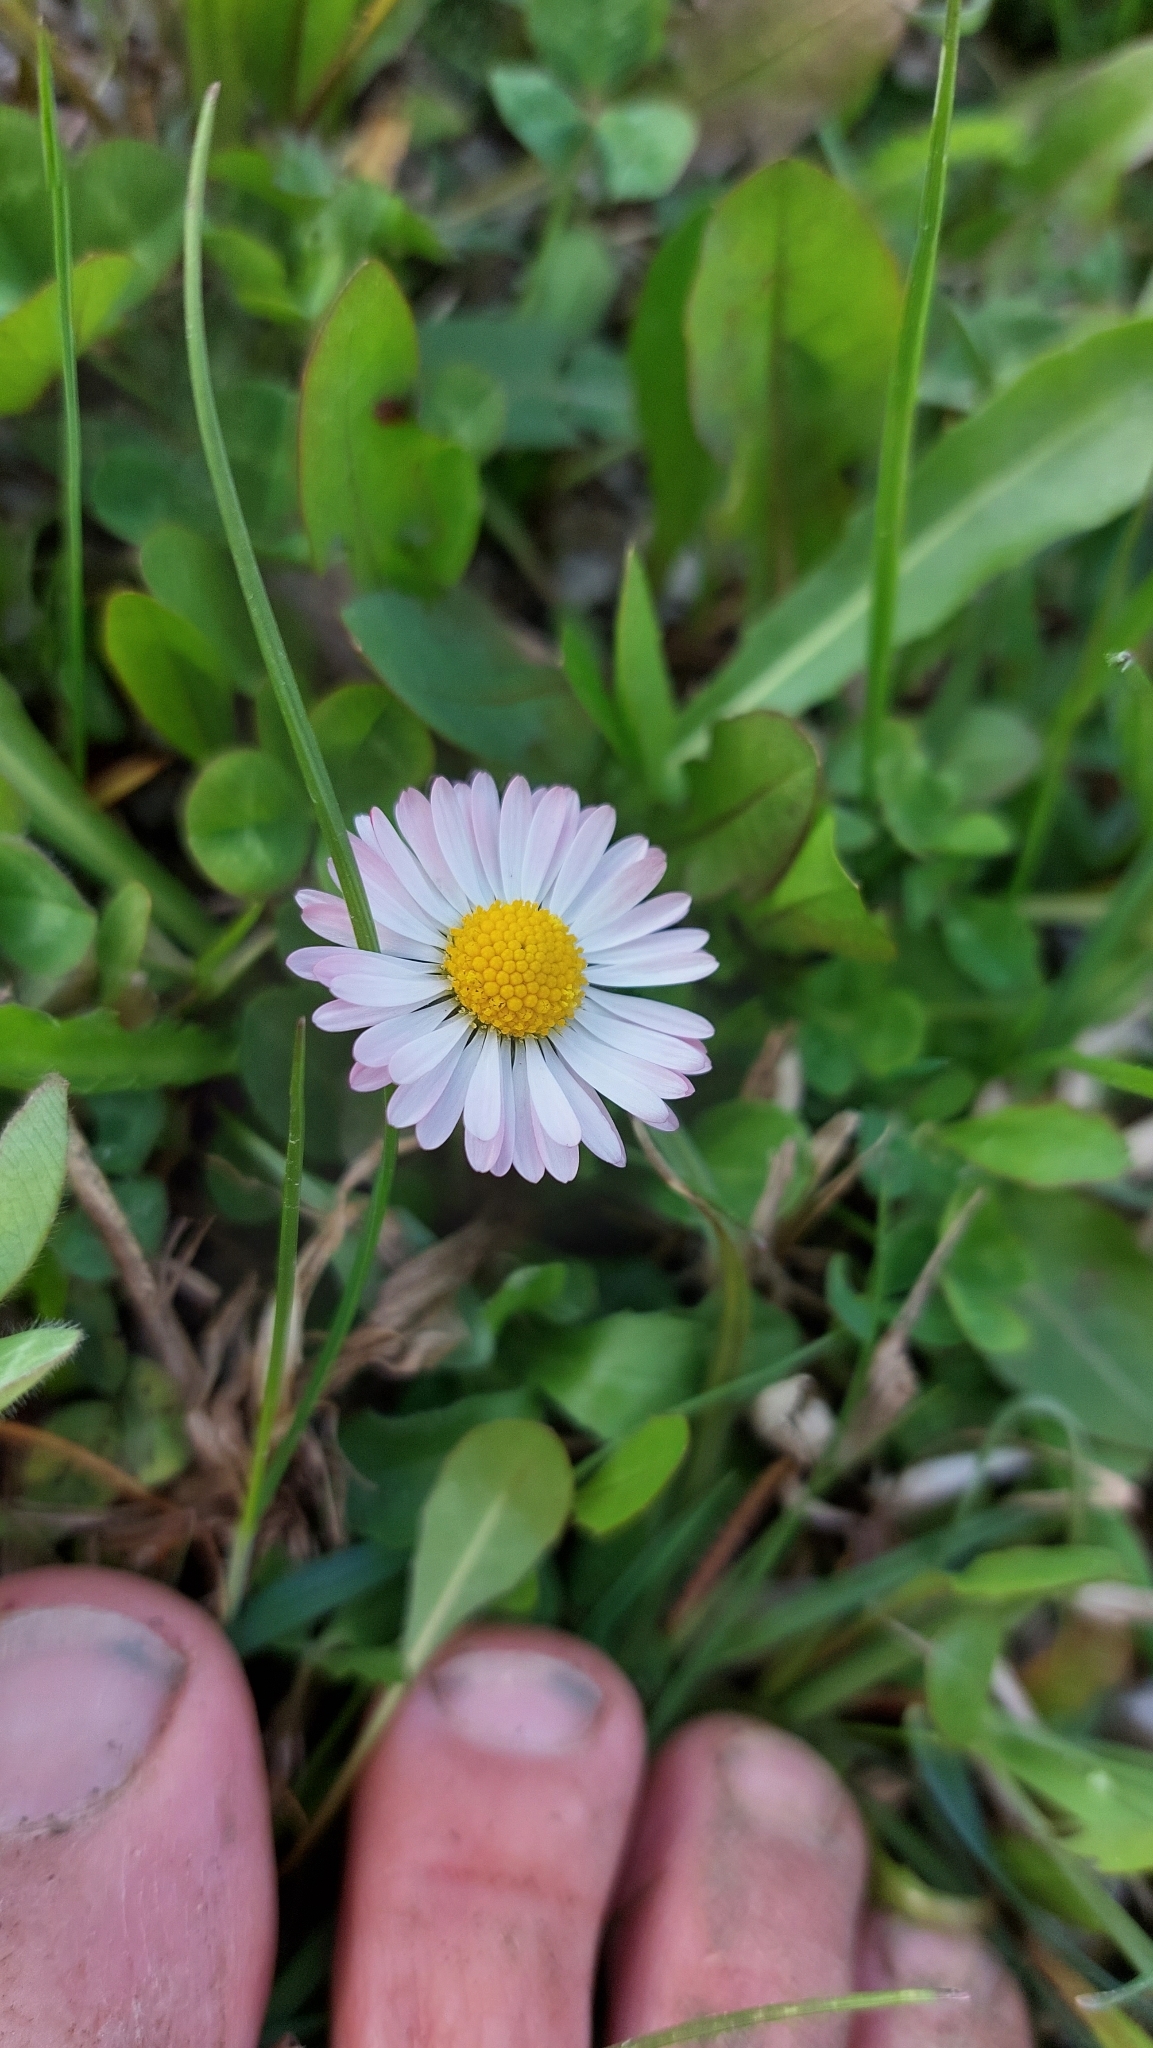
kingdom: Plantae
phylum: Tracheophyta
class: Magnoliopsida
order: Asterales
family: Asteraceae
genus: Bellis
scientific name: Bellis perennis
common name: Lawndaisy
